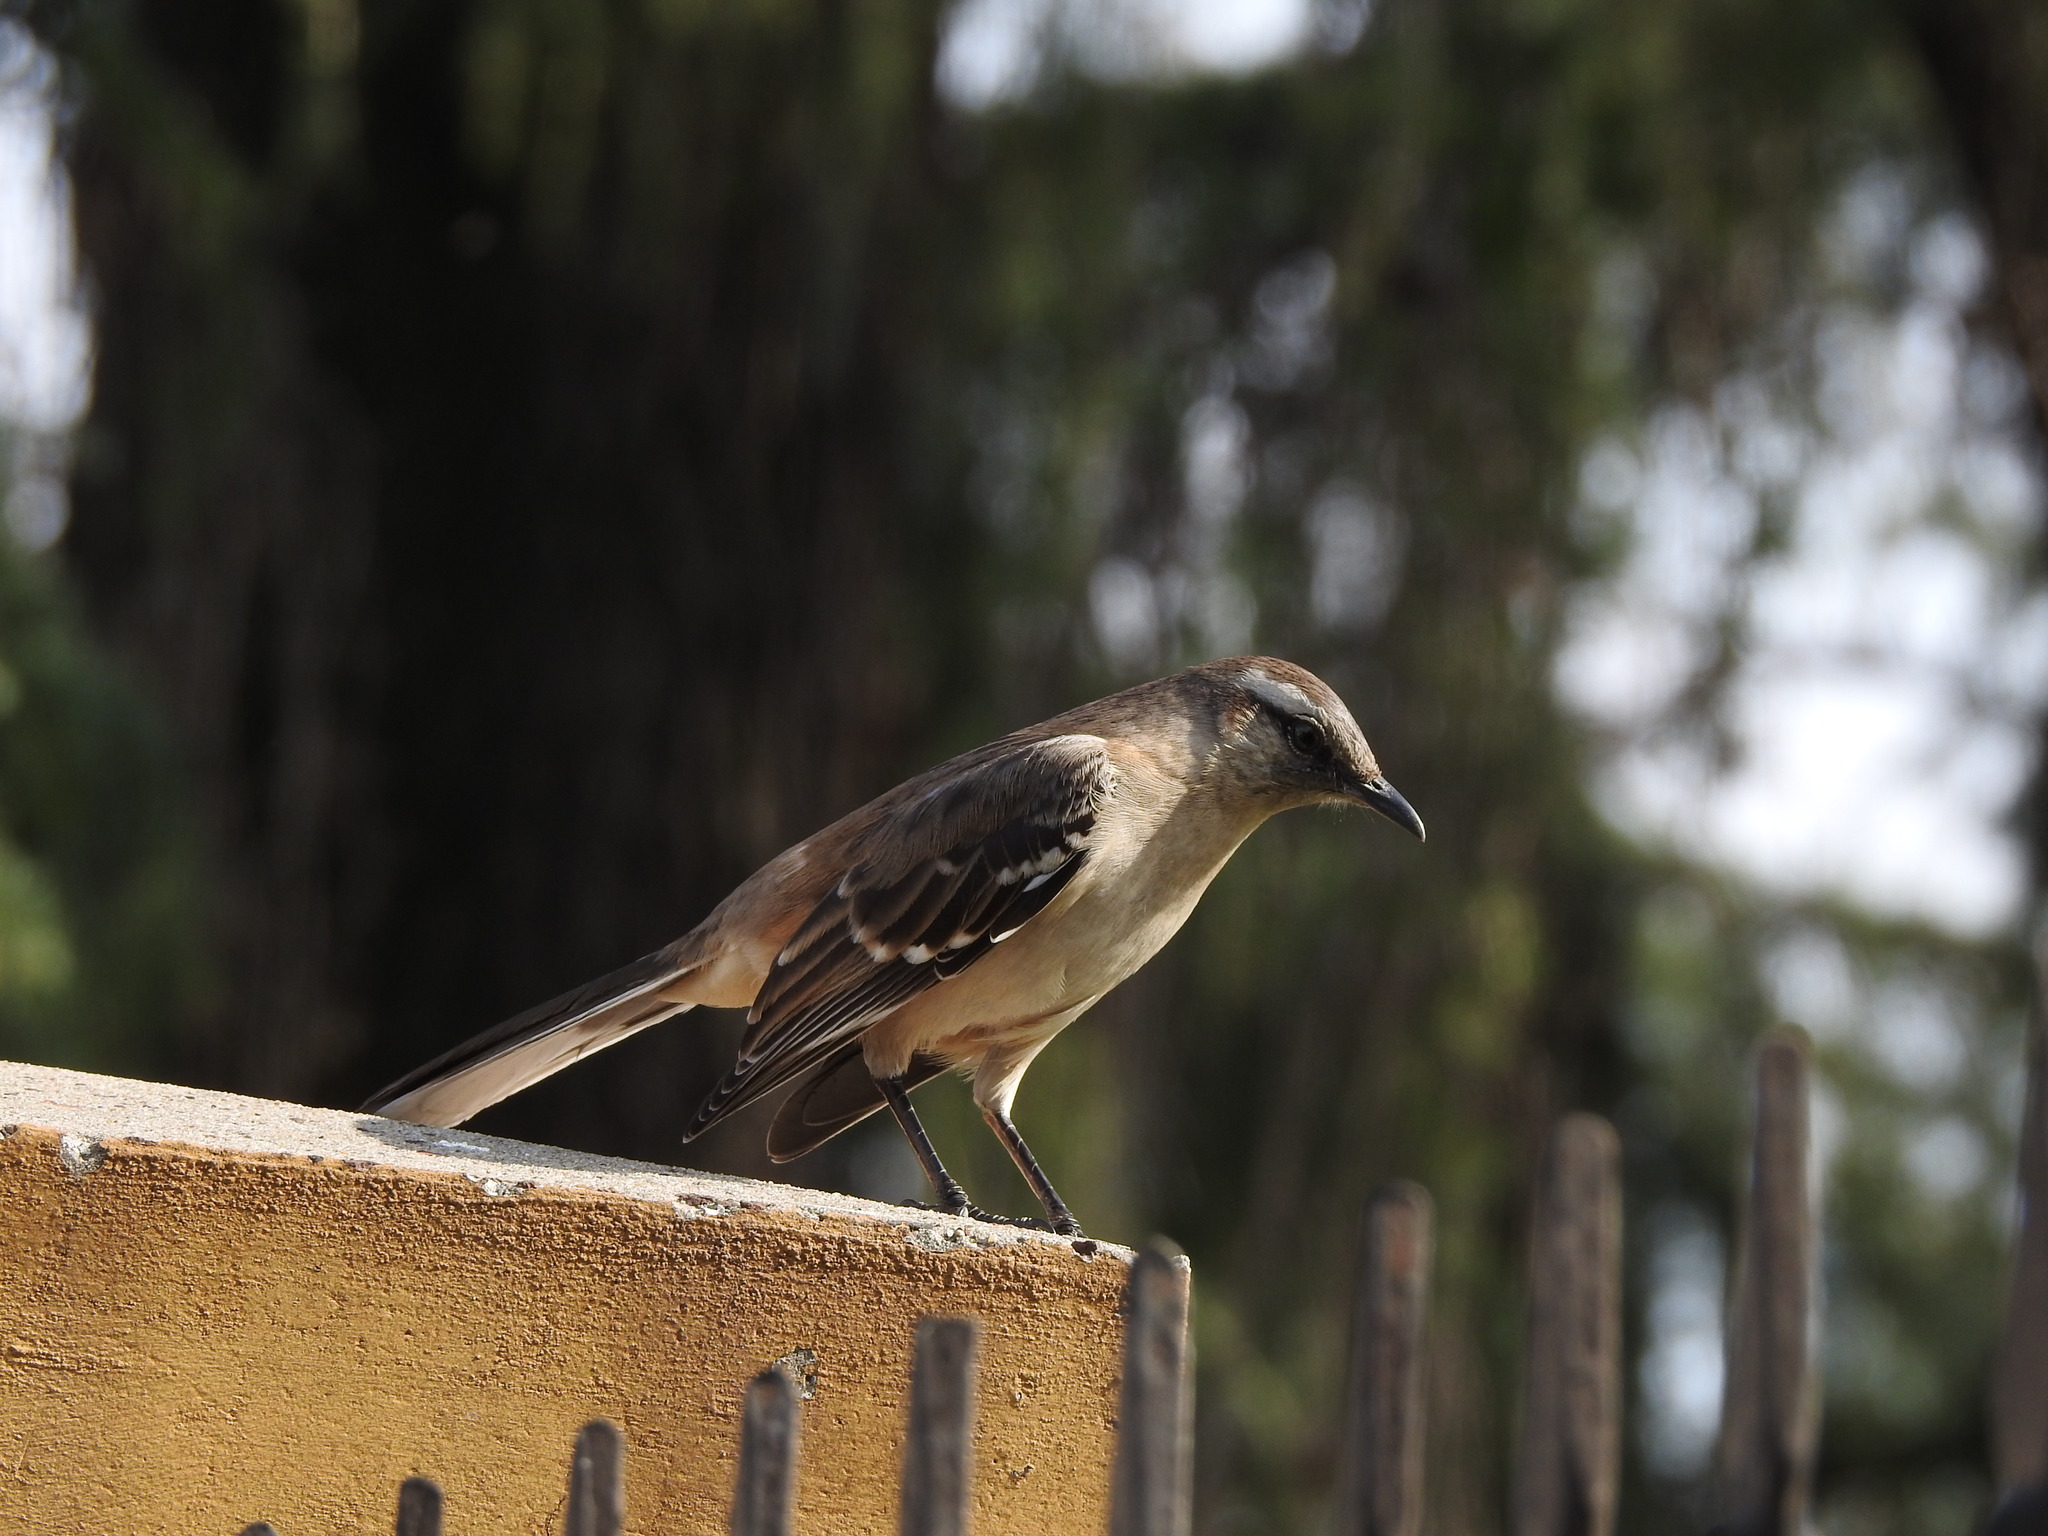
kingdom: Animalia
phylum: Chordata
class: Aves
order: Passeriformes
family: Mimidae
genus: Mimus
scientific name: Mimus saturninus
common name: Chalk-browed mockingbird
